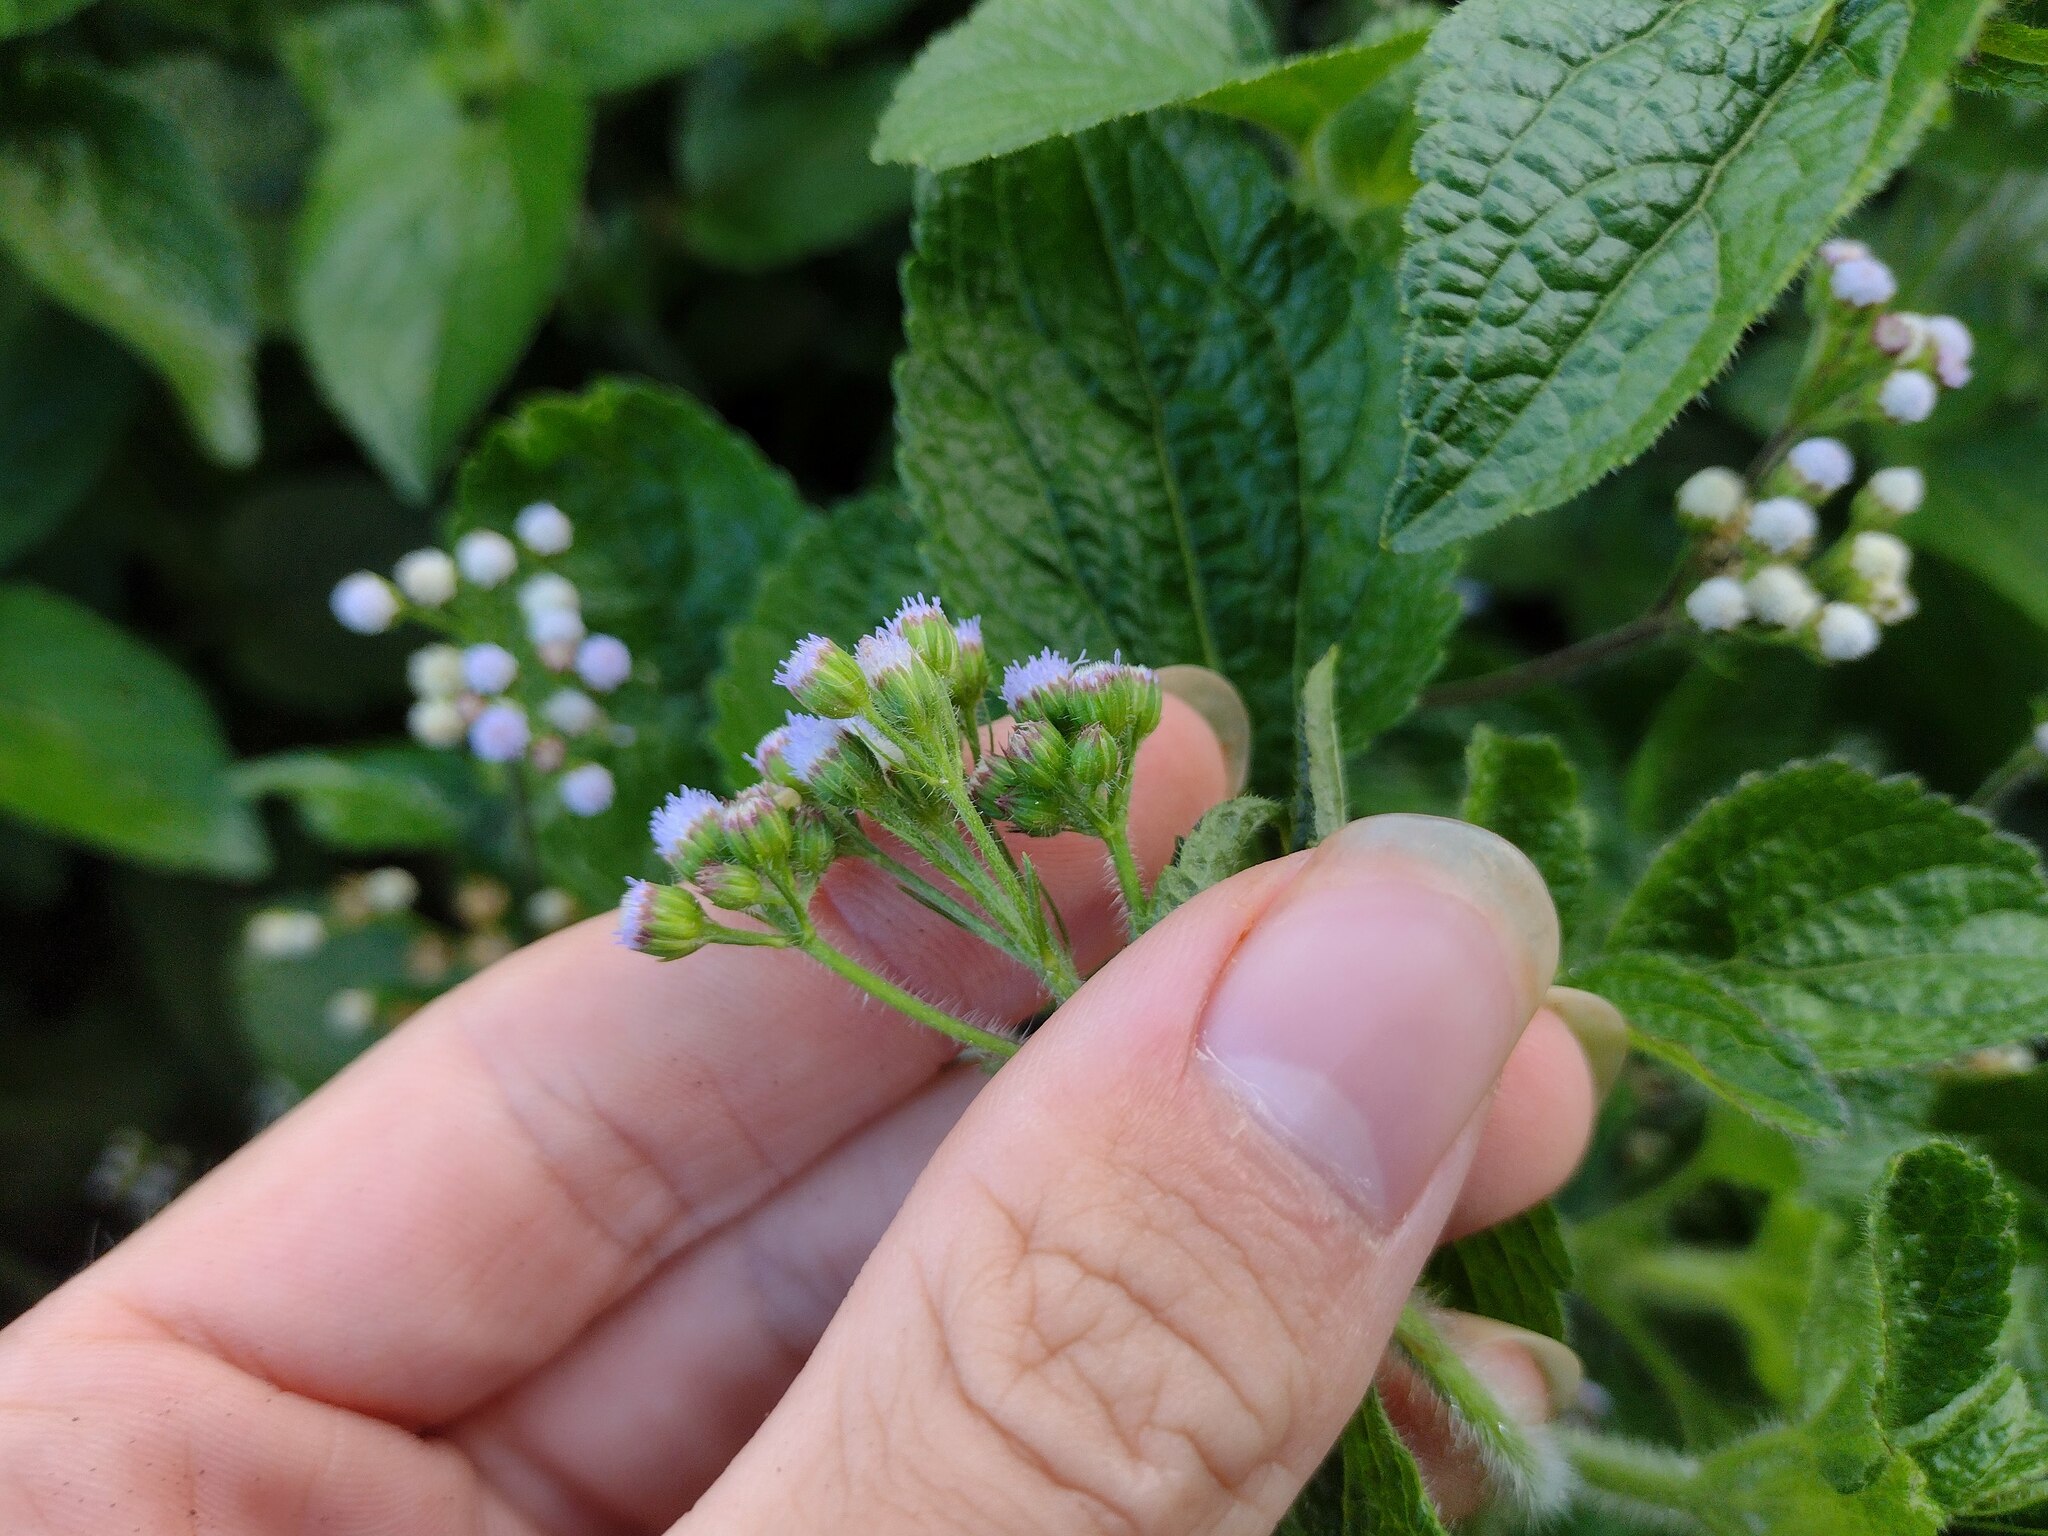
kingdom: Plantae
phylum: Tracheophyta
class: Magnoliopsida
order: Asterales
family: Asteraceae
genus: Ageratum
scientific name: Ageratum conyzoides
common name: Tropical whiteweed
